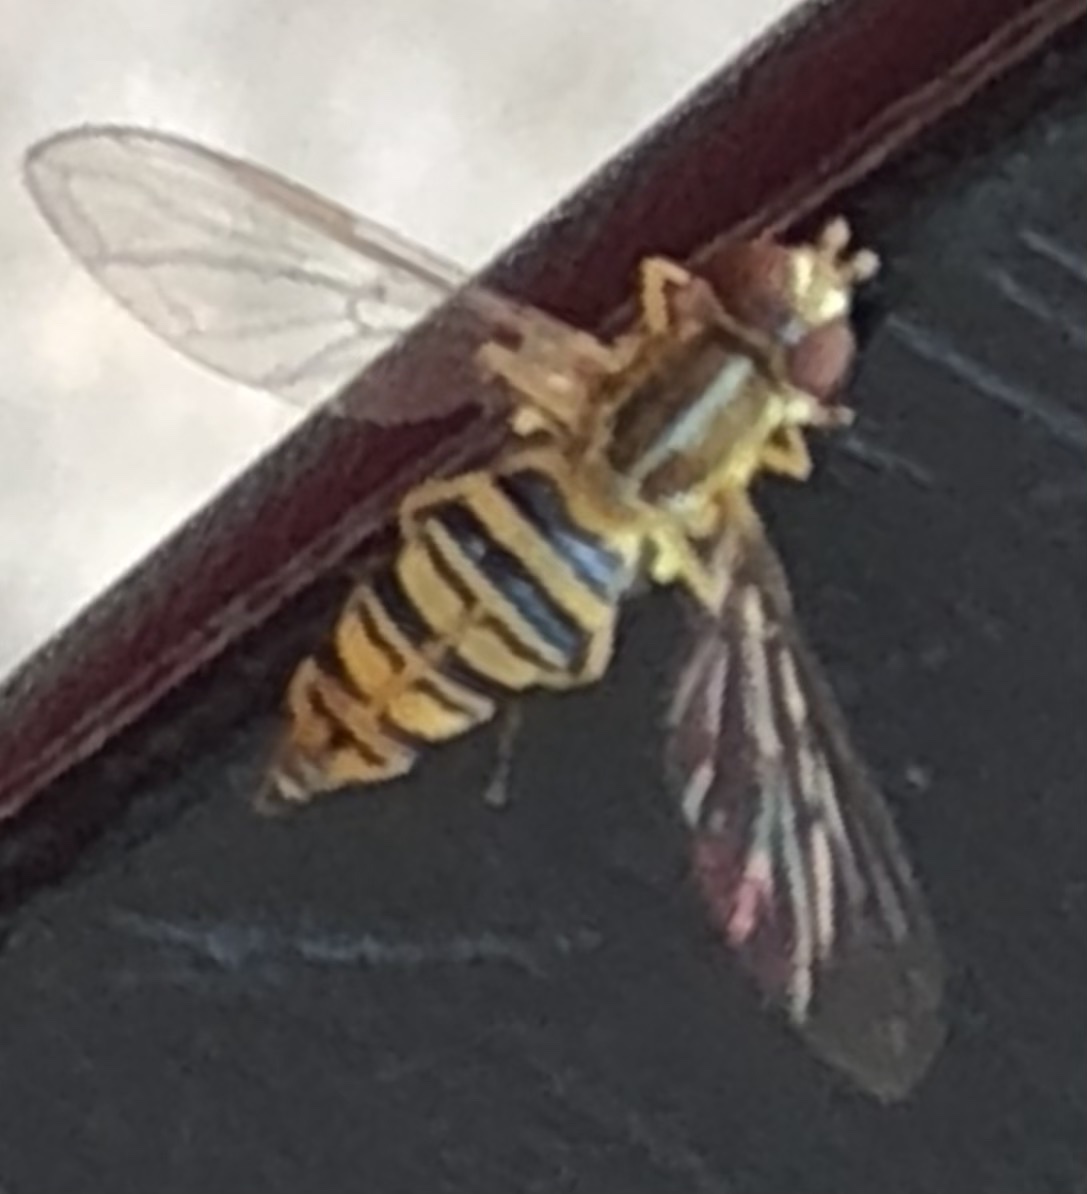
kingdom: Animalia
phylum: Arthropoda
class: Insecta
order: Diptera
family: Syrphidae
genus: Toxomerus
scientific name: Toxomerus politus
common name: Maize calligrapher
